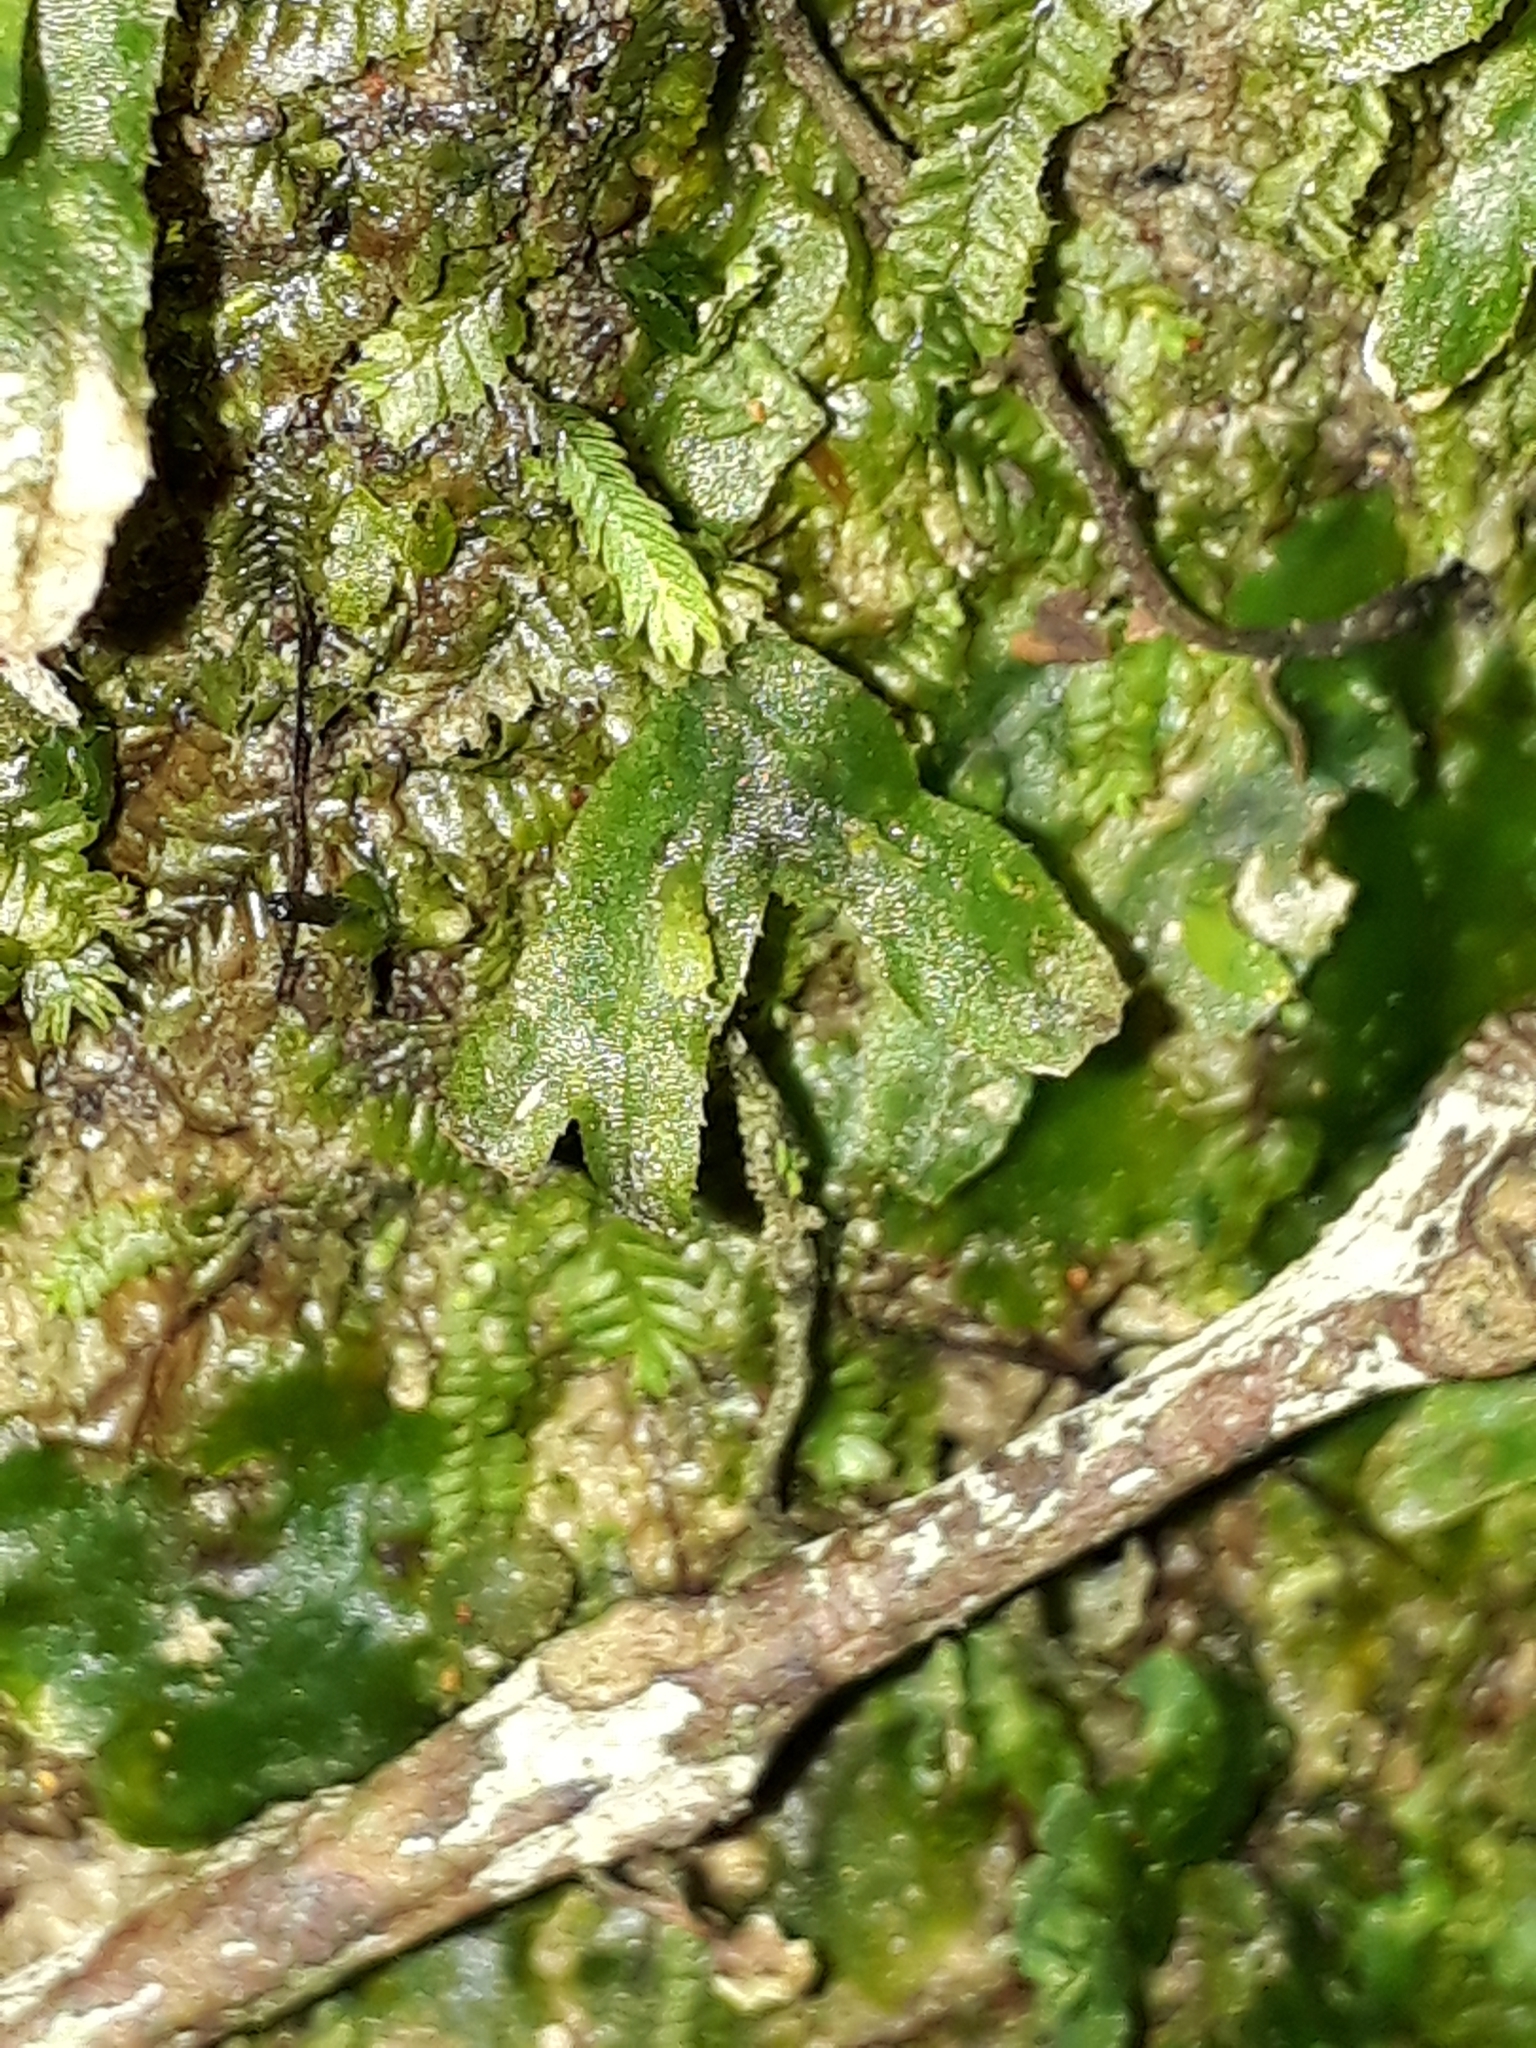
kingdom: Plantae
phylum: Marchantiophyta
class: Jungermanniopsida
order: Pallaviciniales
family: Pallaviciniaceae
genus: Symphyogyna
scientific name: Symphyogyna hymenophyllum
